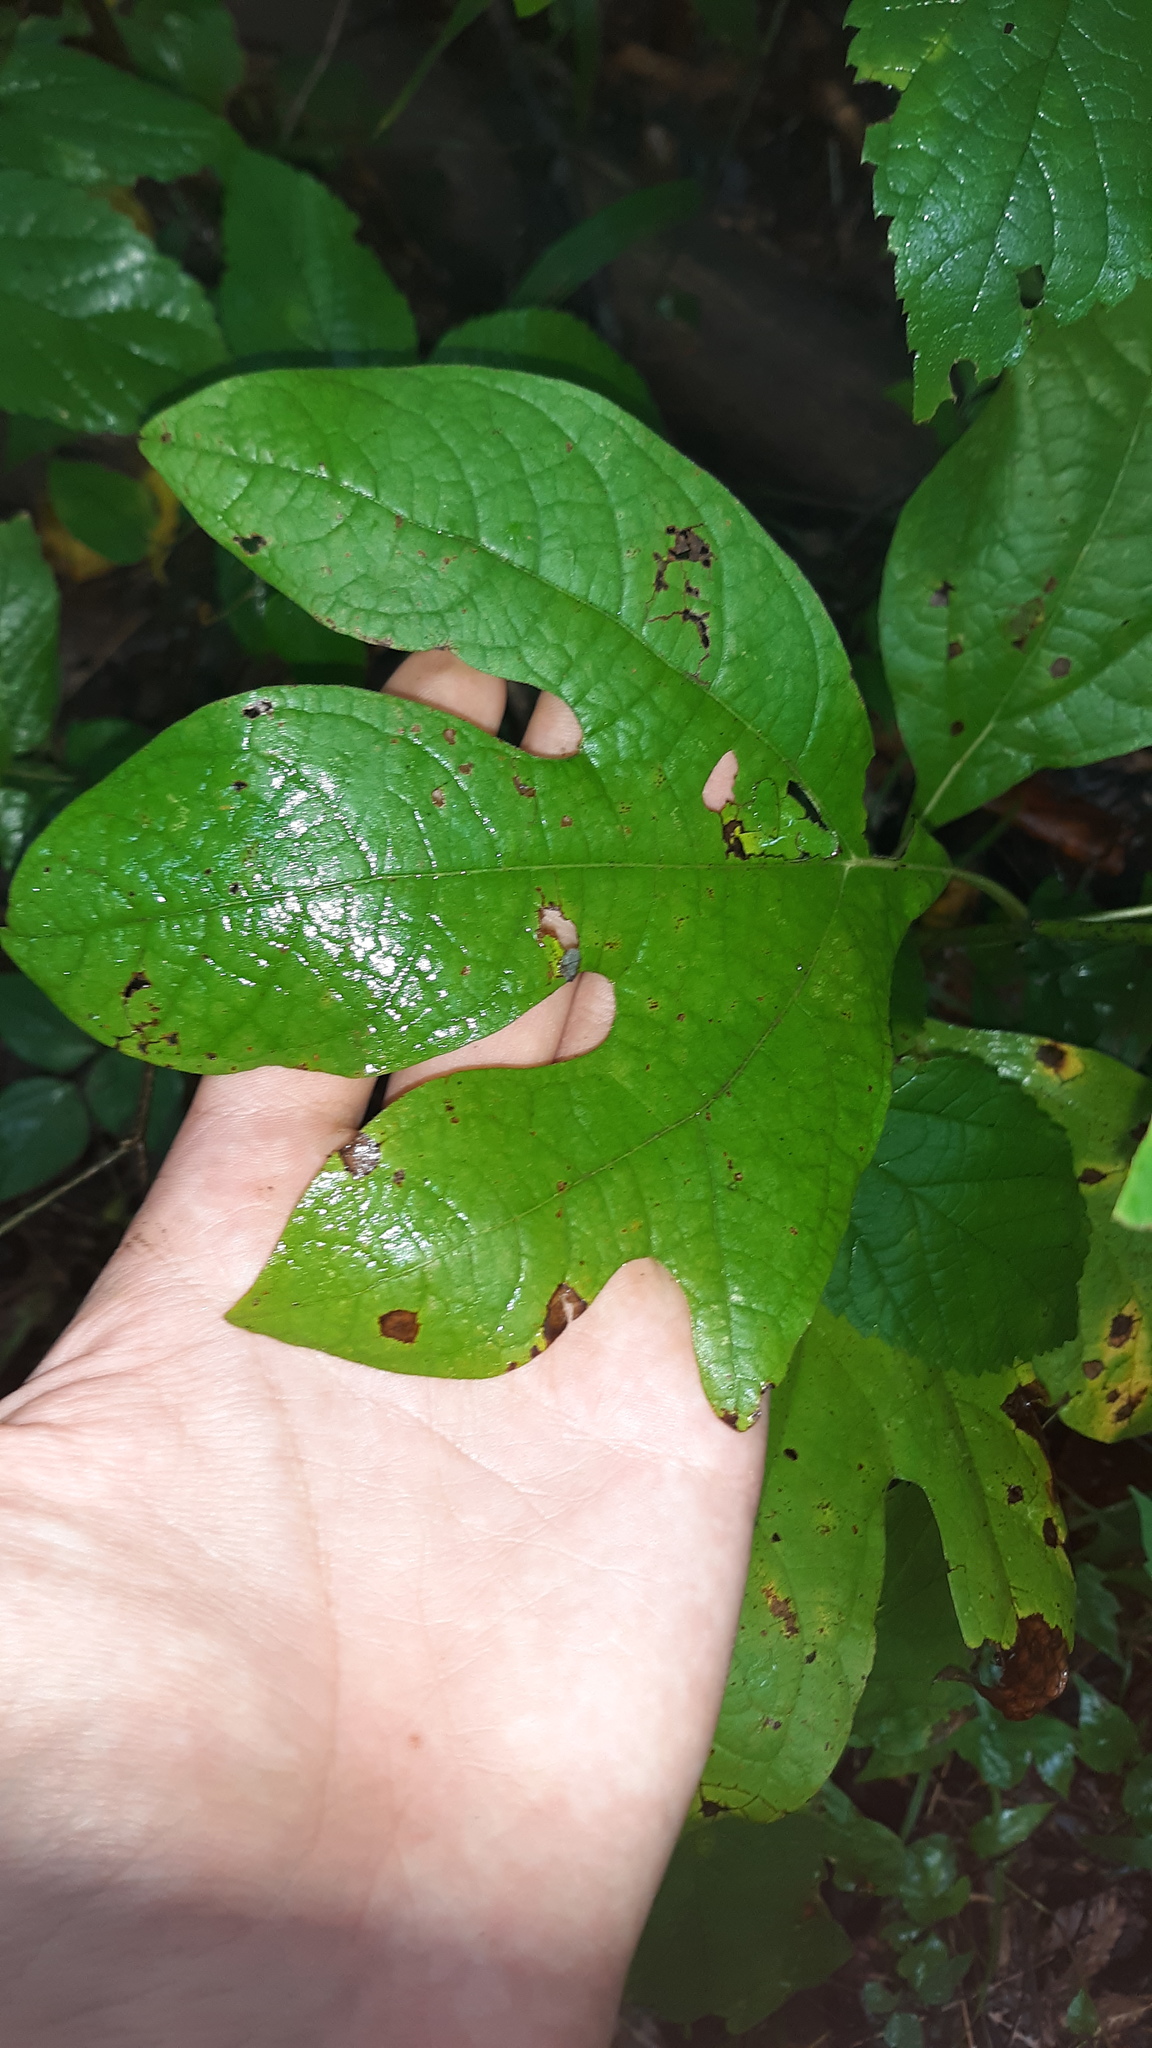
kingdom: Plantae
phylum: Tracheophyta
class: Magnoliopsida
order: Laurales
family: Lauraceae
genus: Sassafras
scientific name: Sassafras albidum
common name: Sassafras
